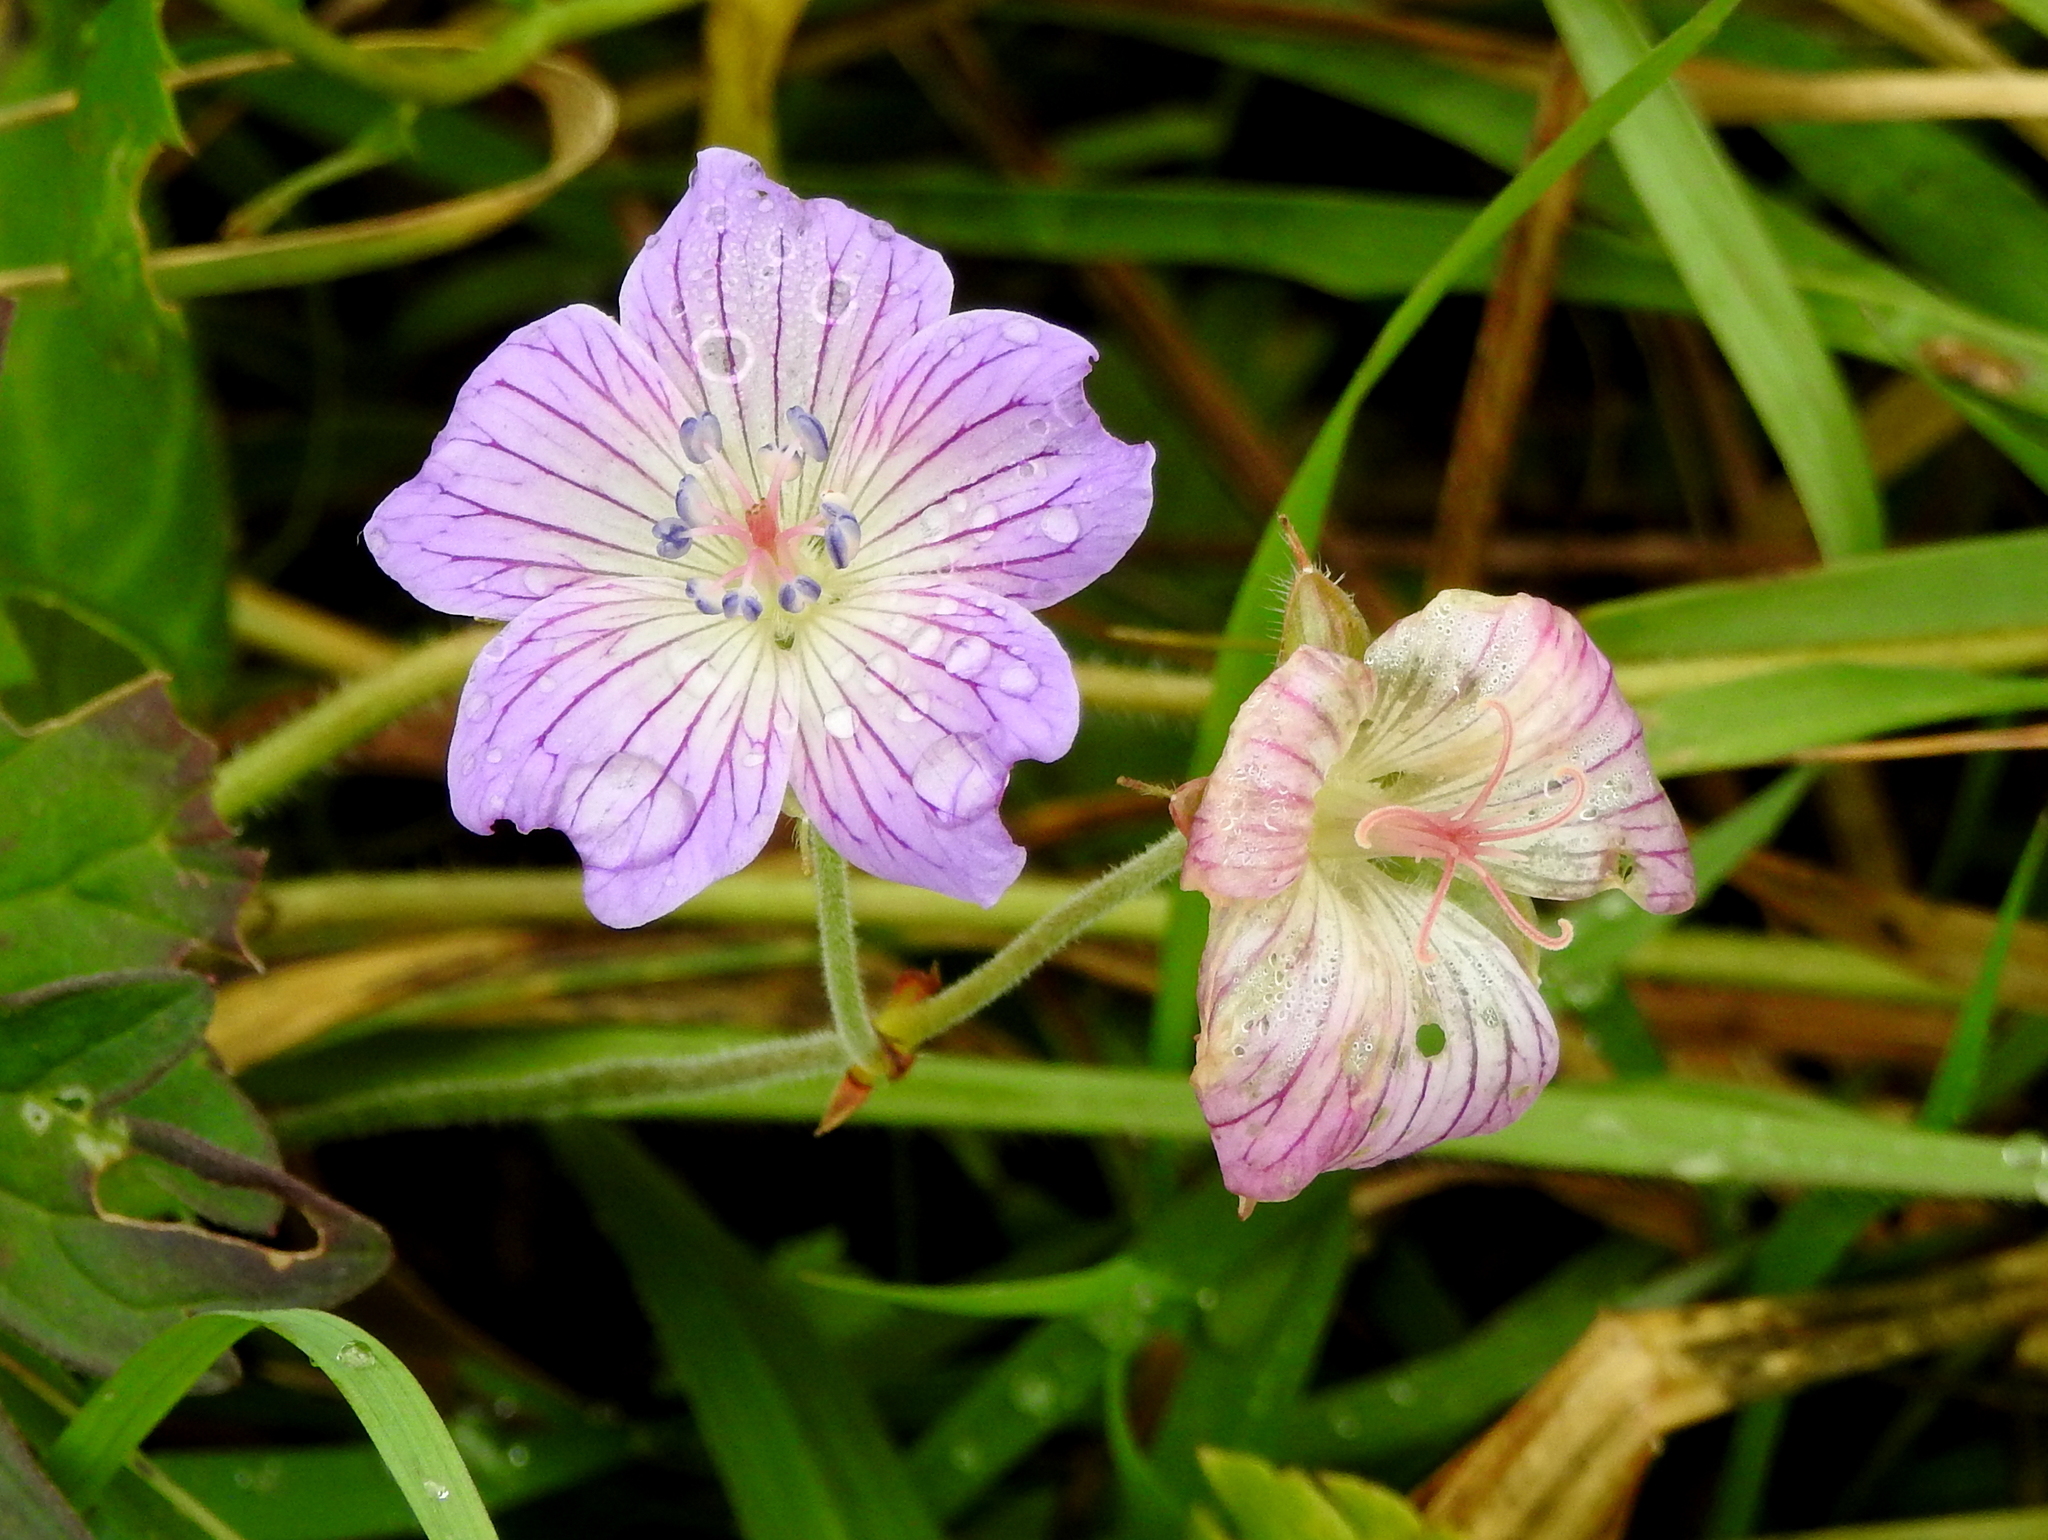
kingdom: Plantae
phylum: Tracheophyta
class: Magnoliopsida
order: Geraniales
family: Geraniaceae
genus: Geranium
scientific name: Geranium wlassovianum
